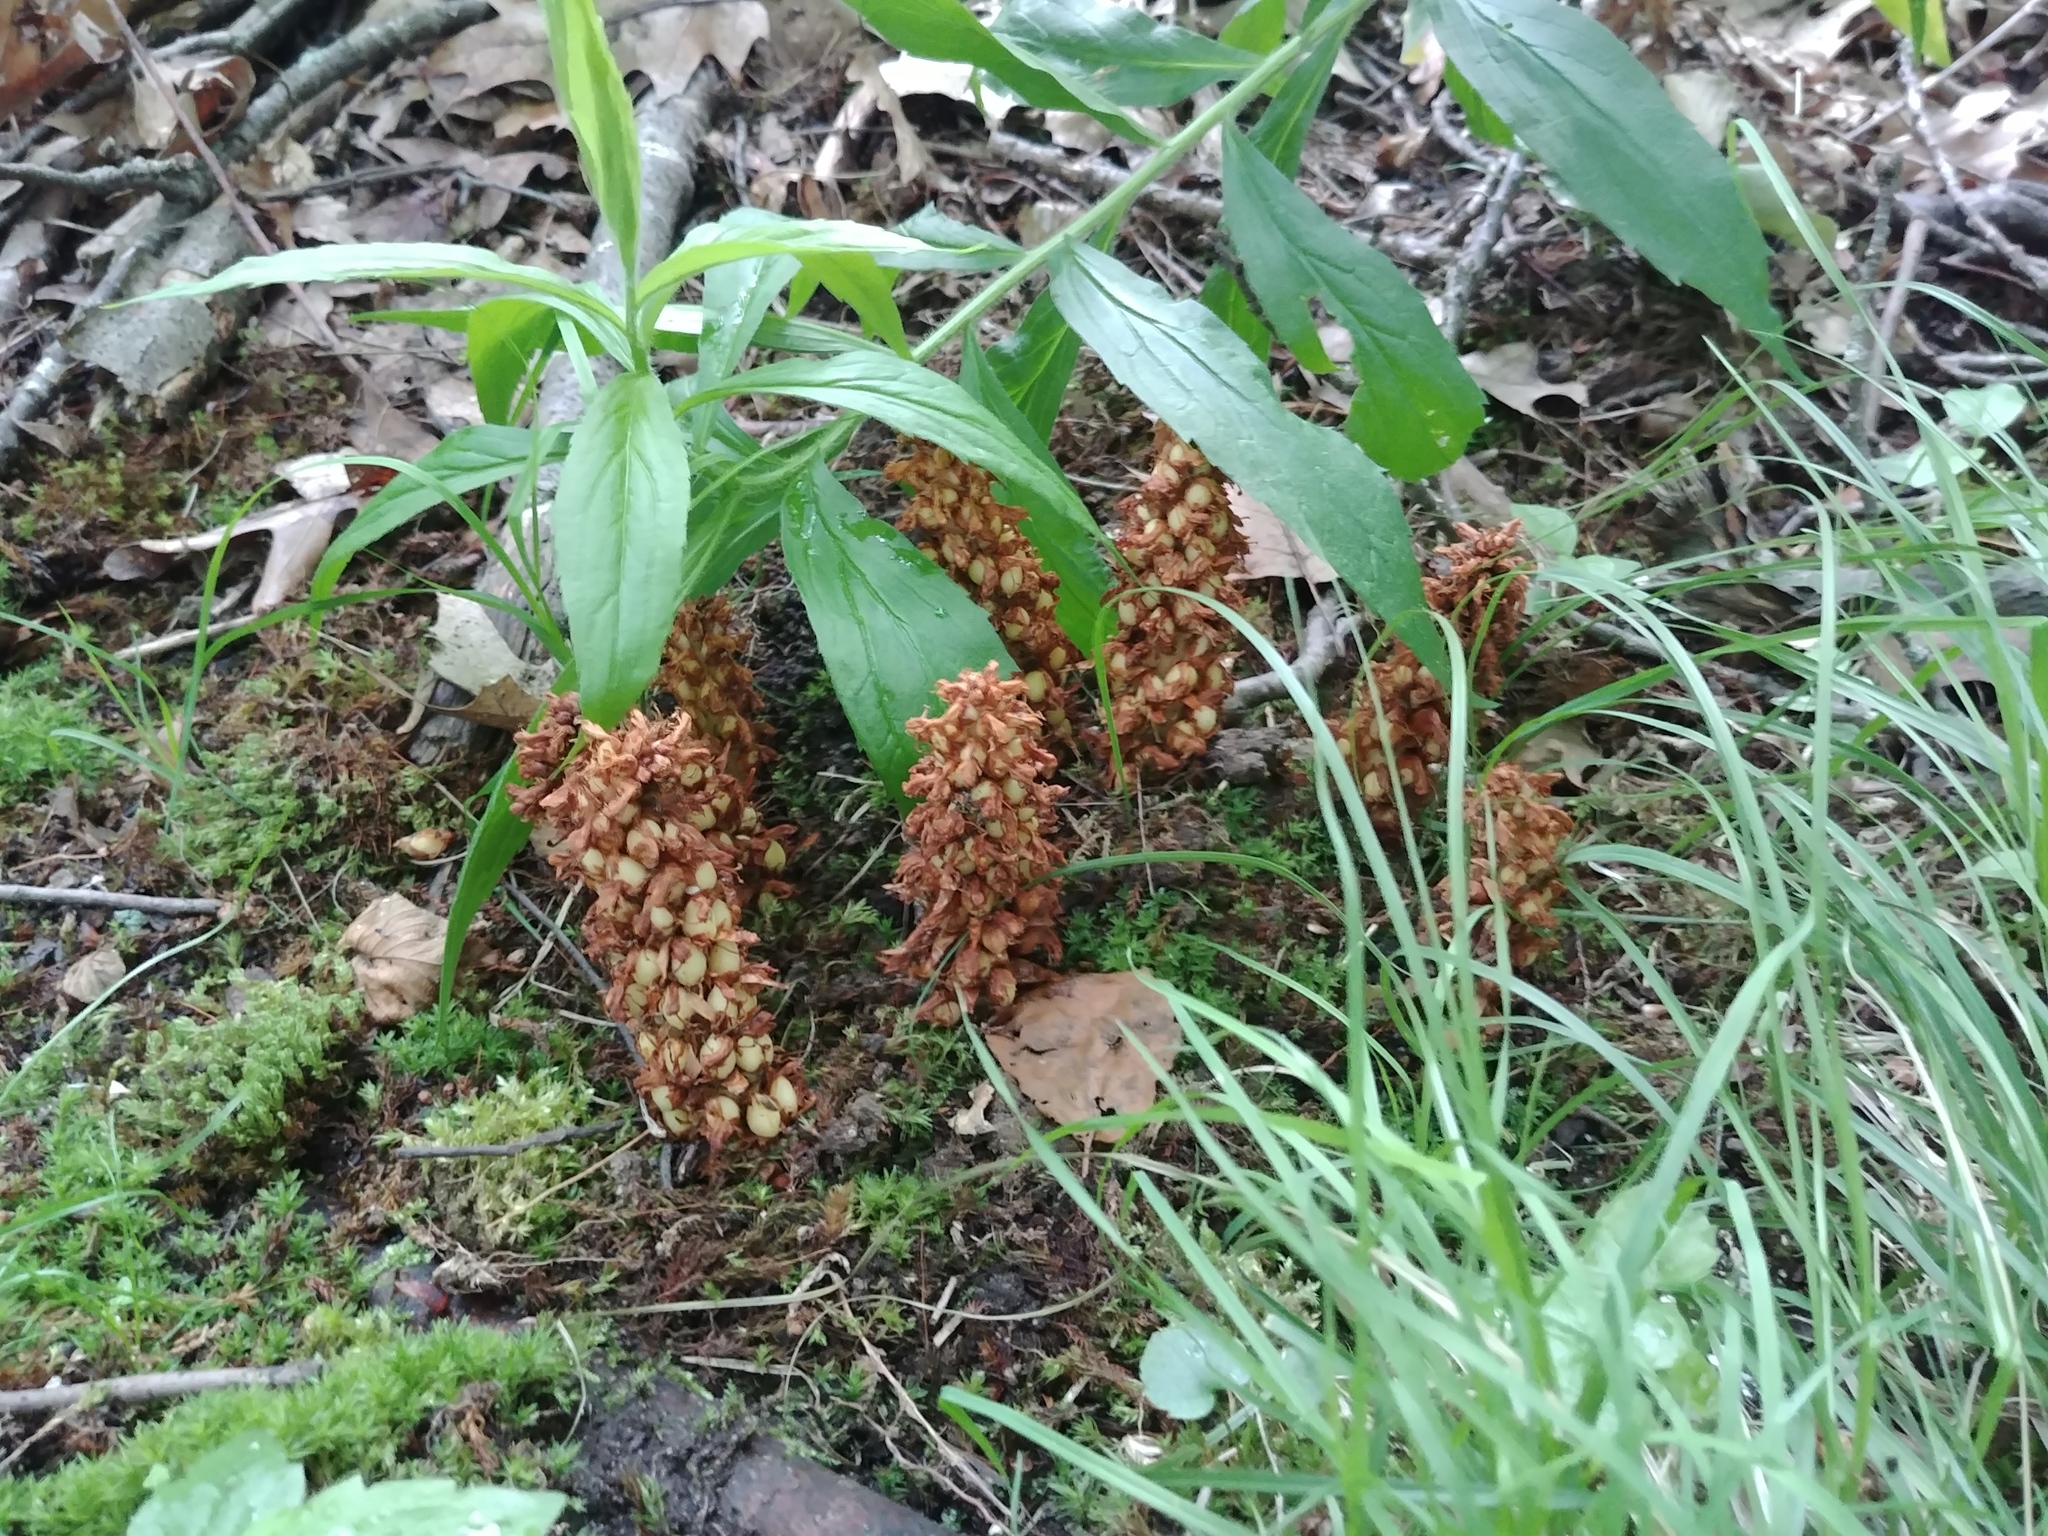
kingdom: Plantae
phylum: Tracheophyta
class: Magnoliopsida
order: Lamiales
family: Orobanchaceae
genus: Conopholis
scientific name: Conopholis americana
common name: American cancer-root
